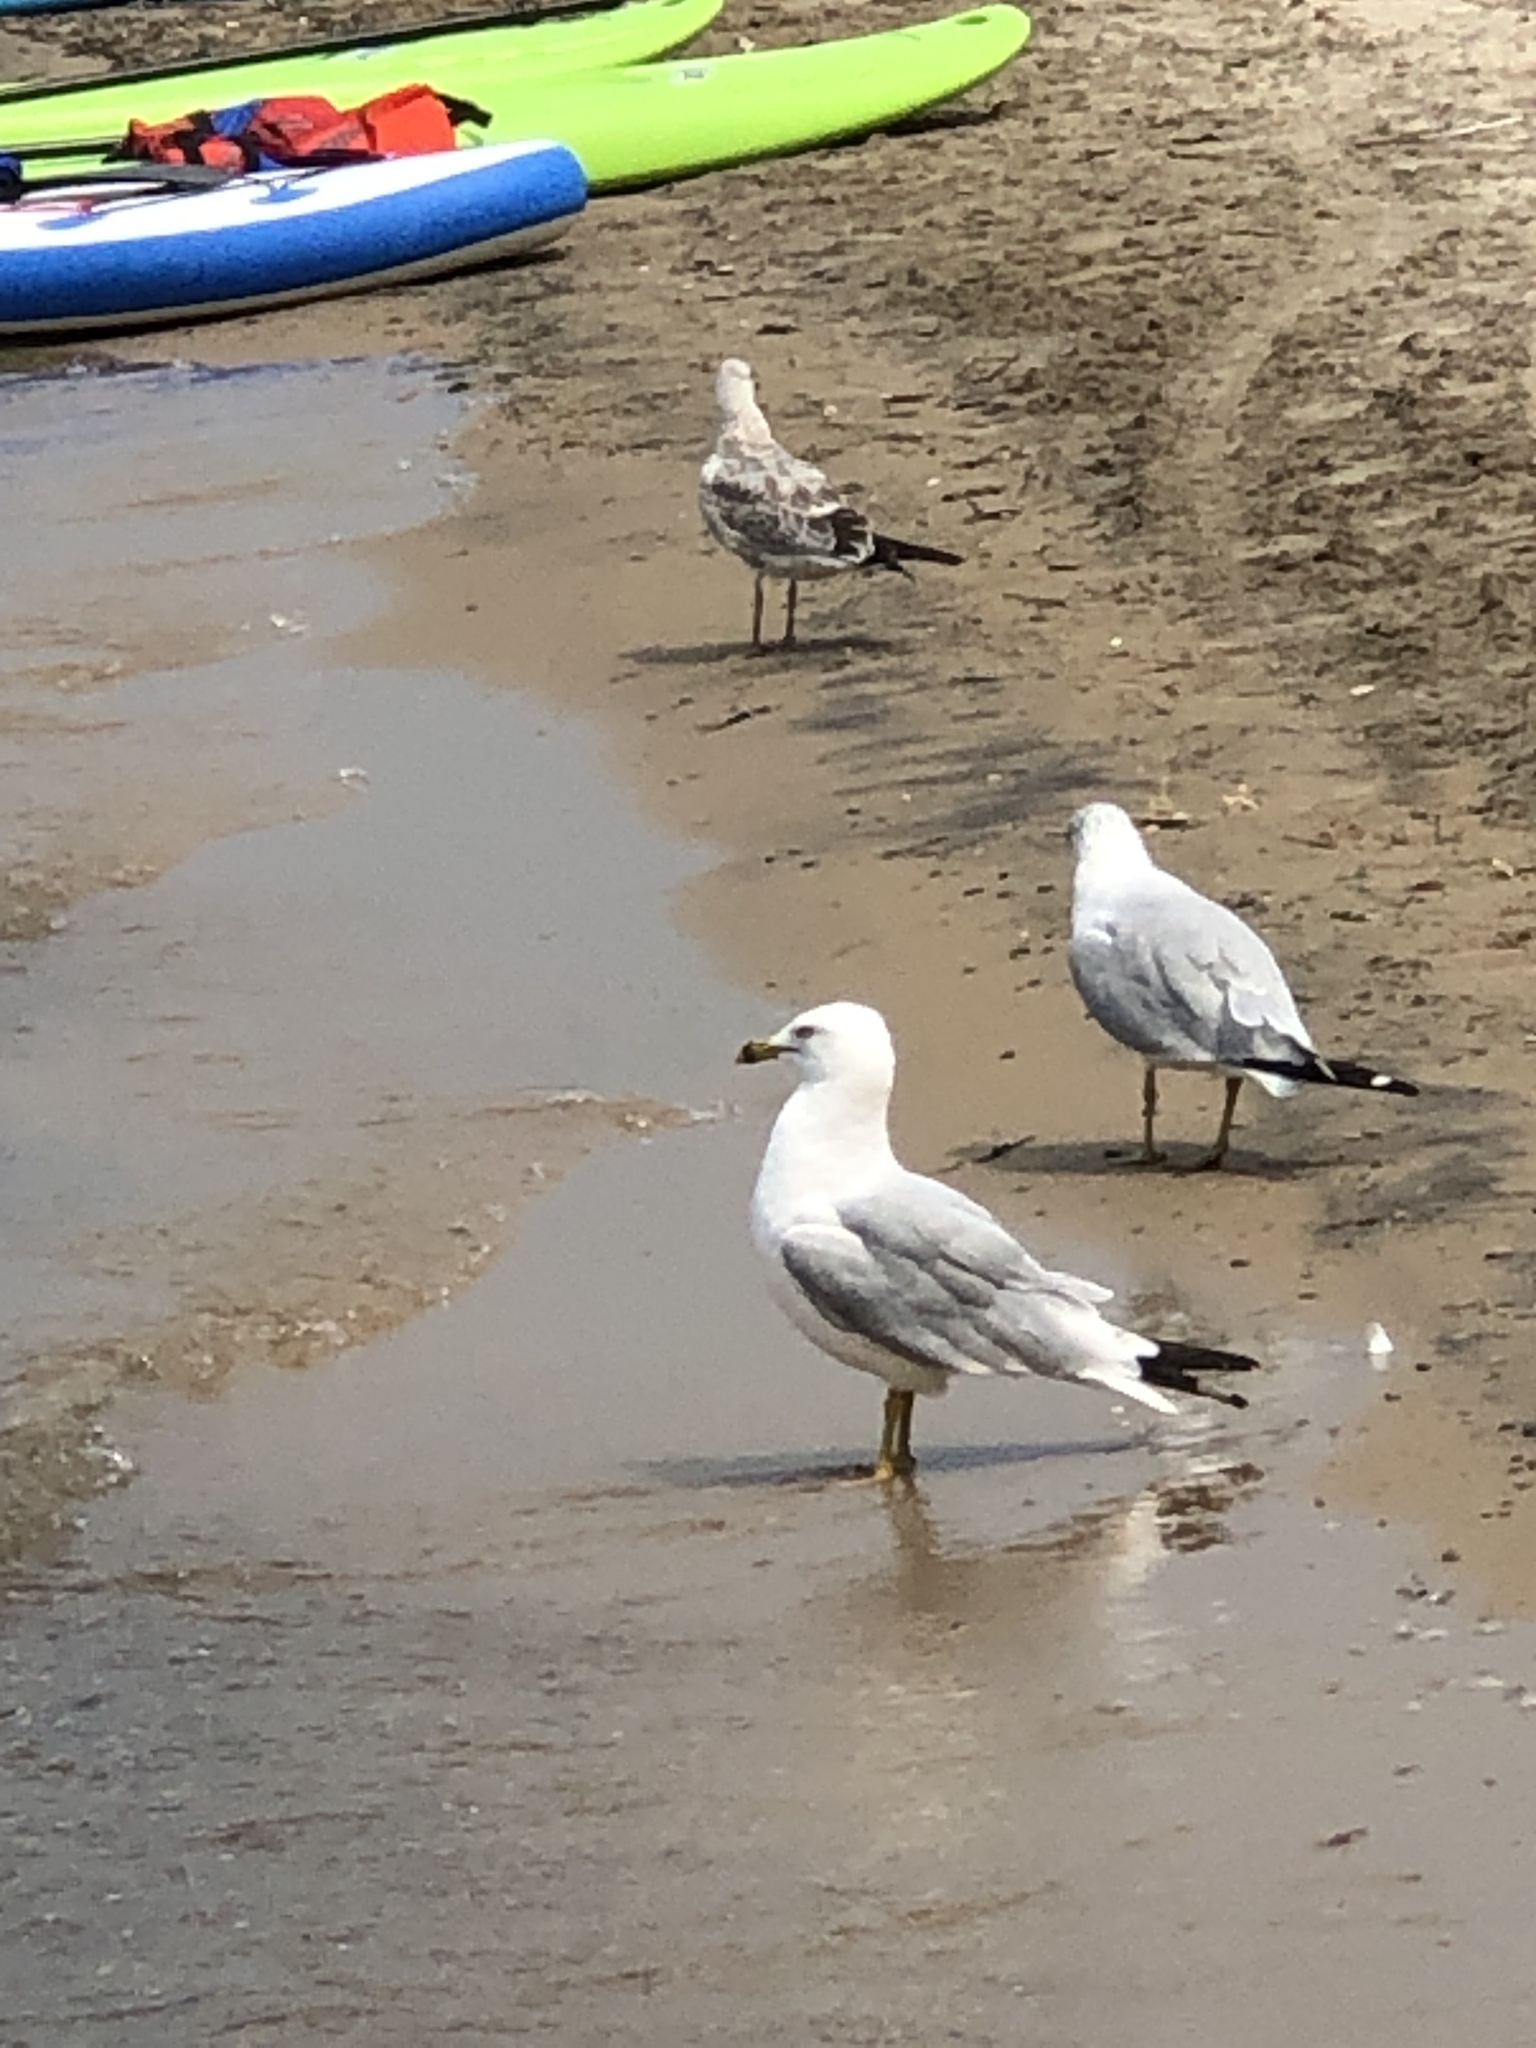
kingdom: Animalia
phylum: Chordata
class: Aves
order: Charadriiformes
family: Laridae
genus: Larus
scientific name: Larus delawarensis
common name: Ring-billed gull
